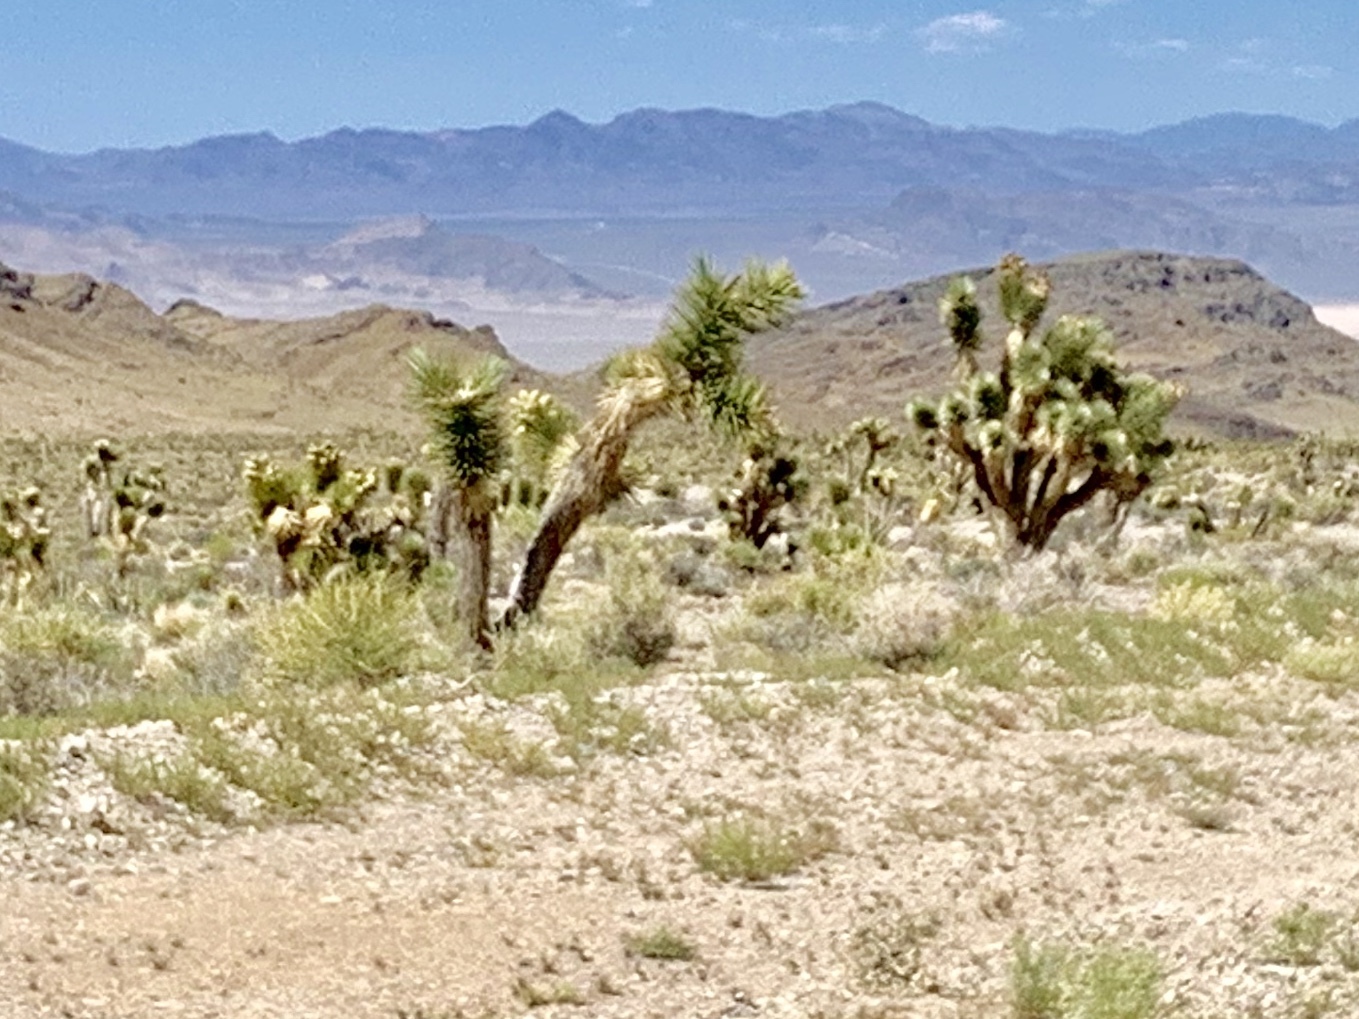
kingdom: Plantae
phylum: Tracheophyta
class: Liliopsida
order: Asparagales
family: Asparagaceae
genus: Yucca
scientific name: Yucca brevifolia
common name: Joshua tree
